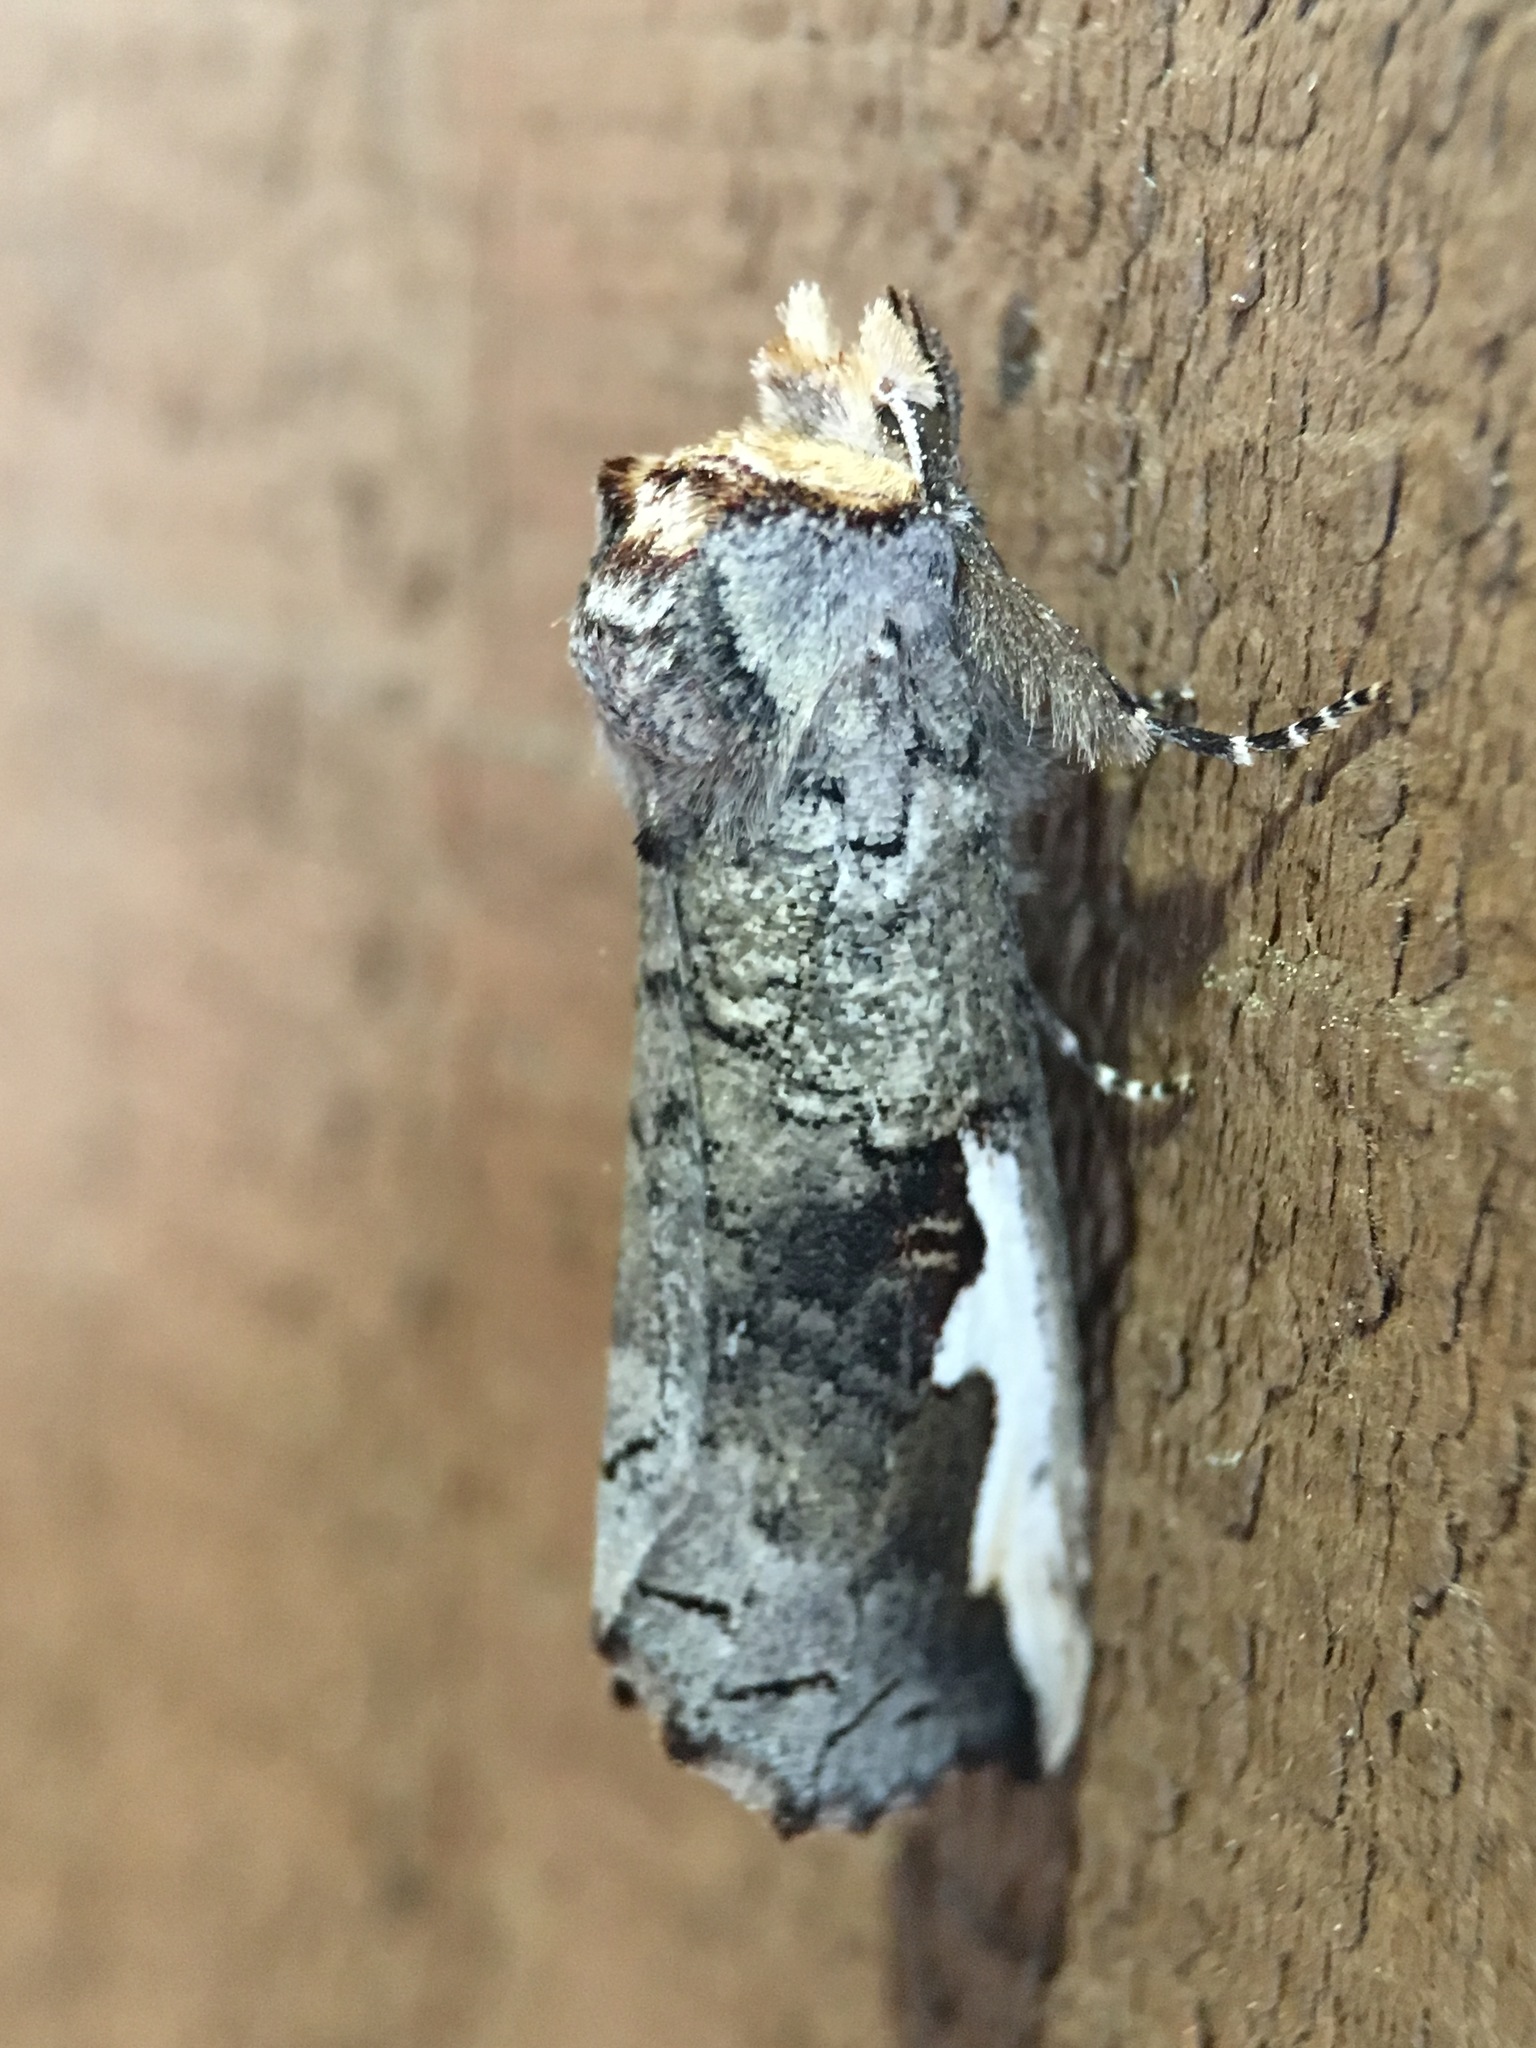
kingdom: Animalia
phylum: Arthropoda
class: Insecta
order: Lepidoptera
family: Notodontidae
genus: Symmerista
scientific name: Symmerista albifrons
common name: White-headed prominent
